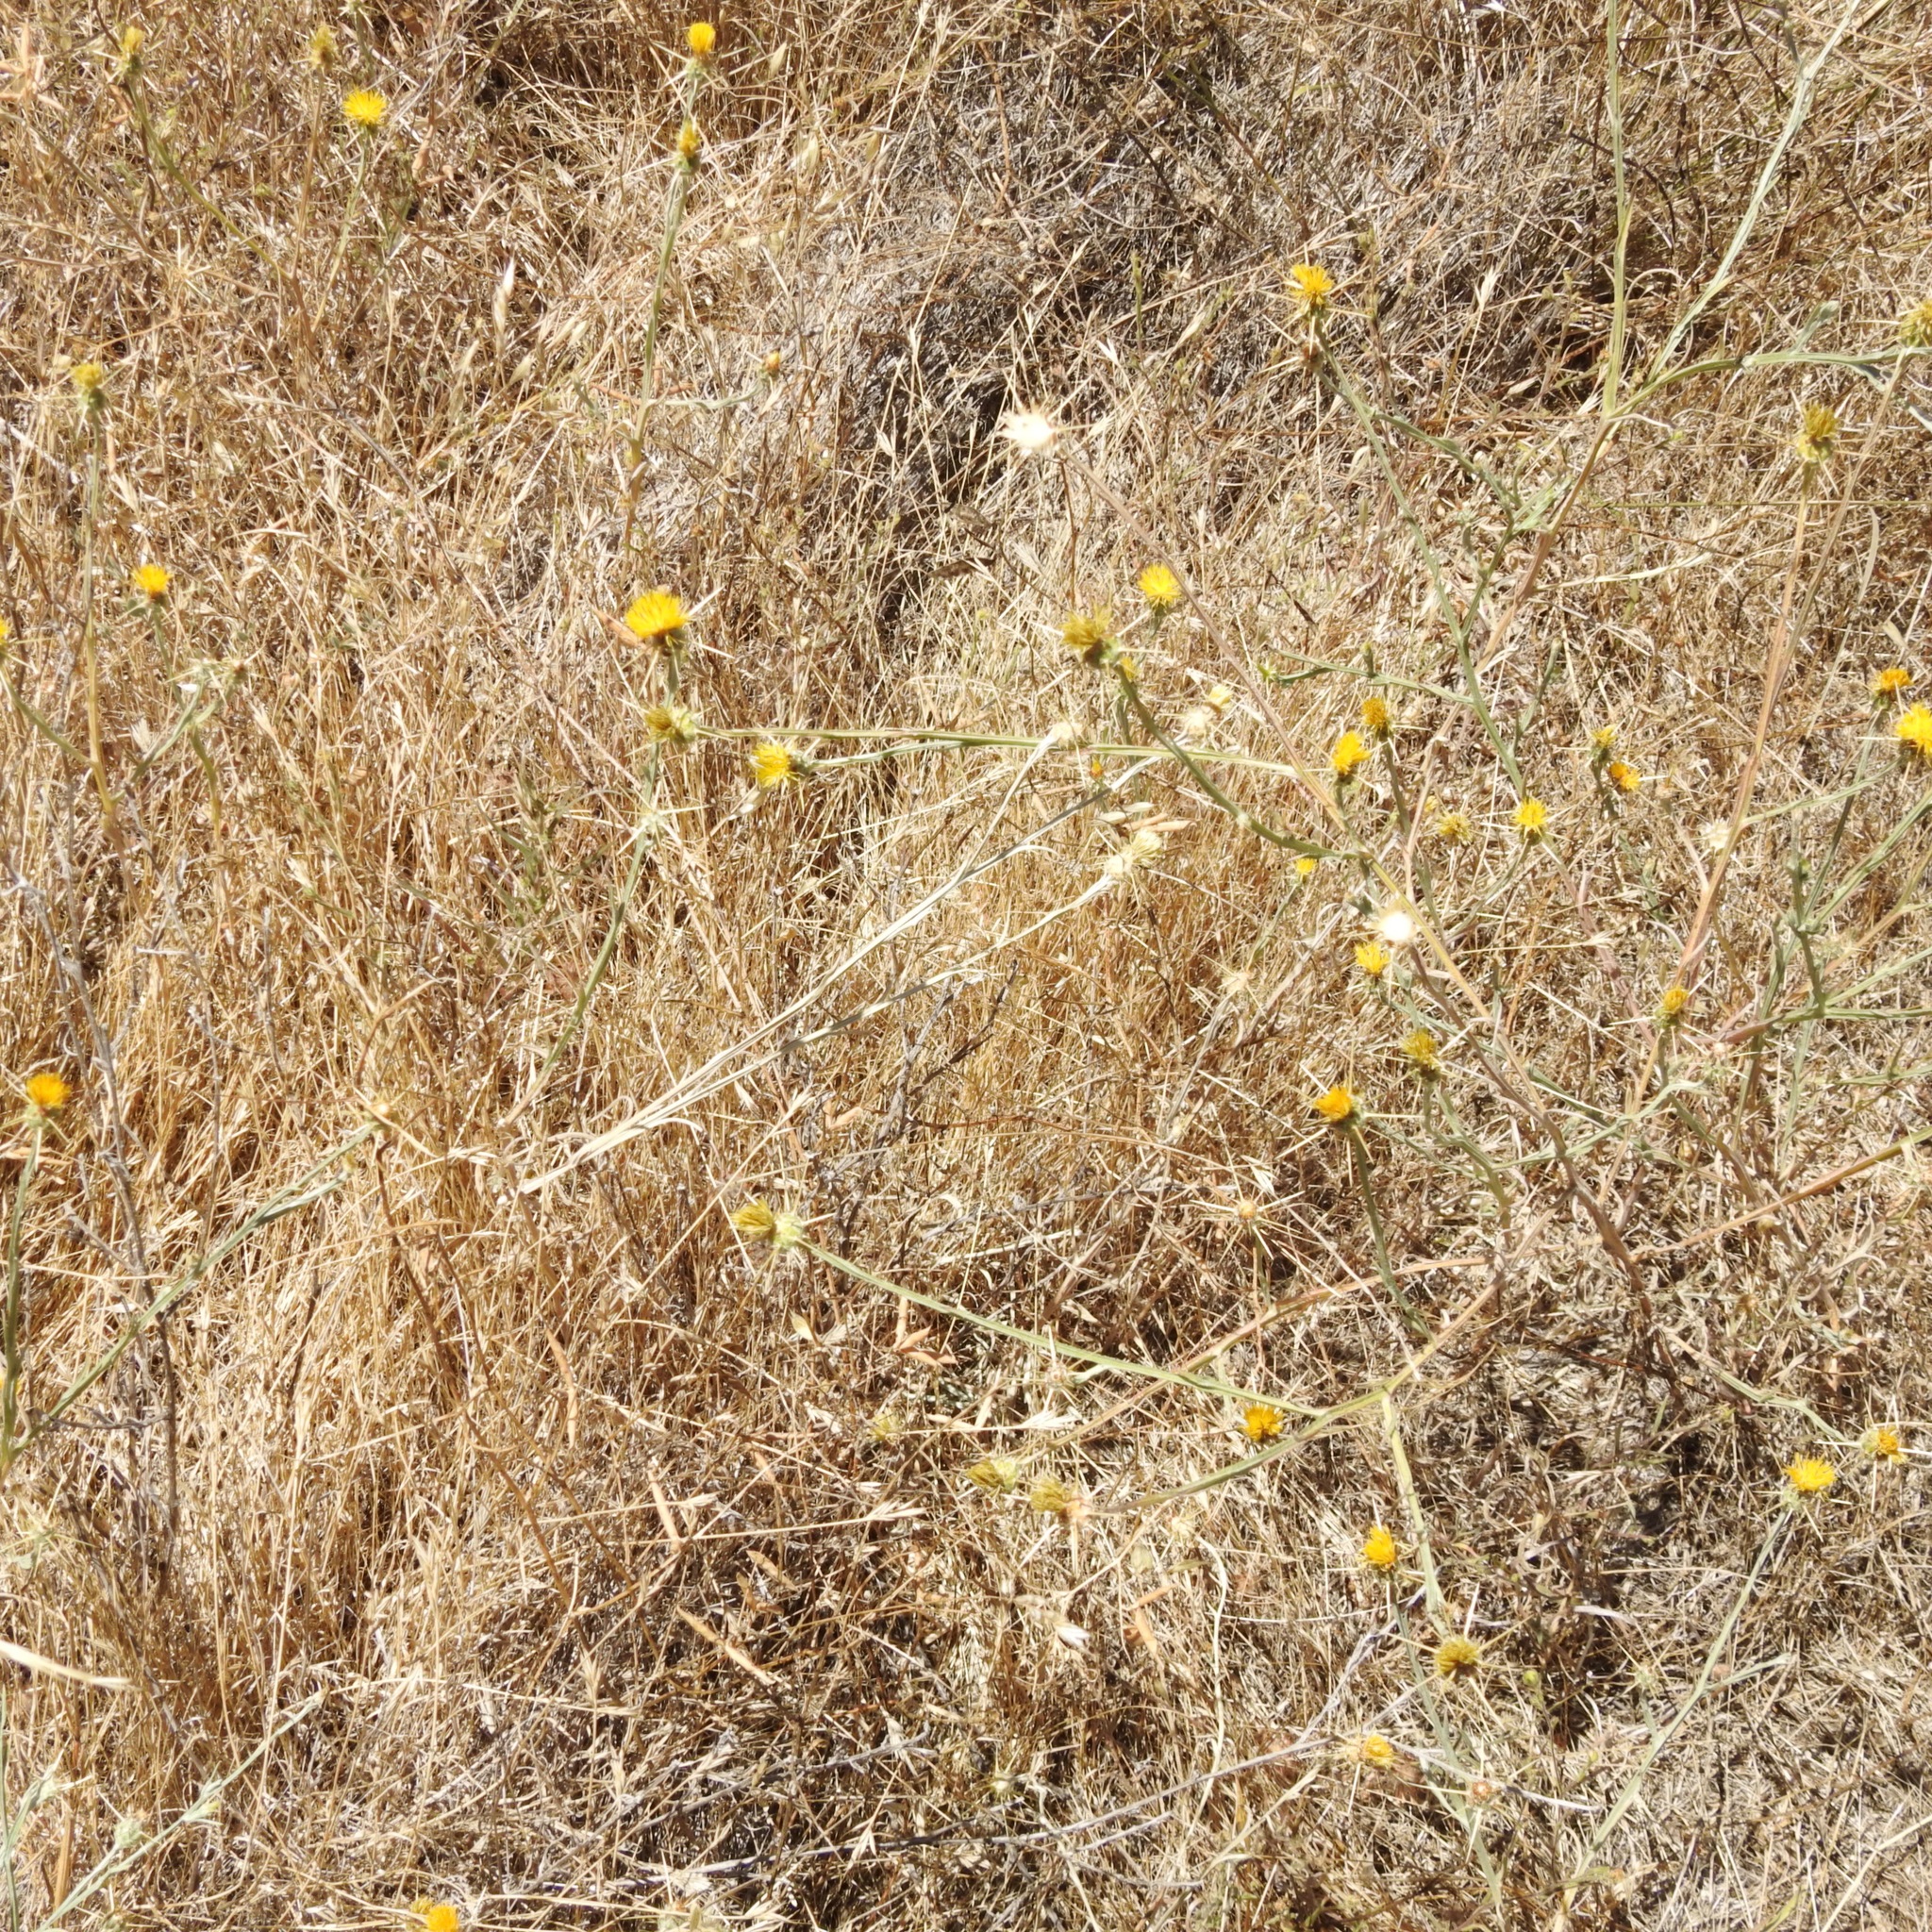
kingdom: Plantae
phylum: Tracheophyta
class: Magnoliopsida
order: Asterales
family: Asteraceae
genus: Centaurea
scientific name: Centaurea solstitialis
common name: Yellow star-thistle
